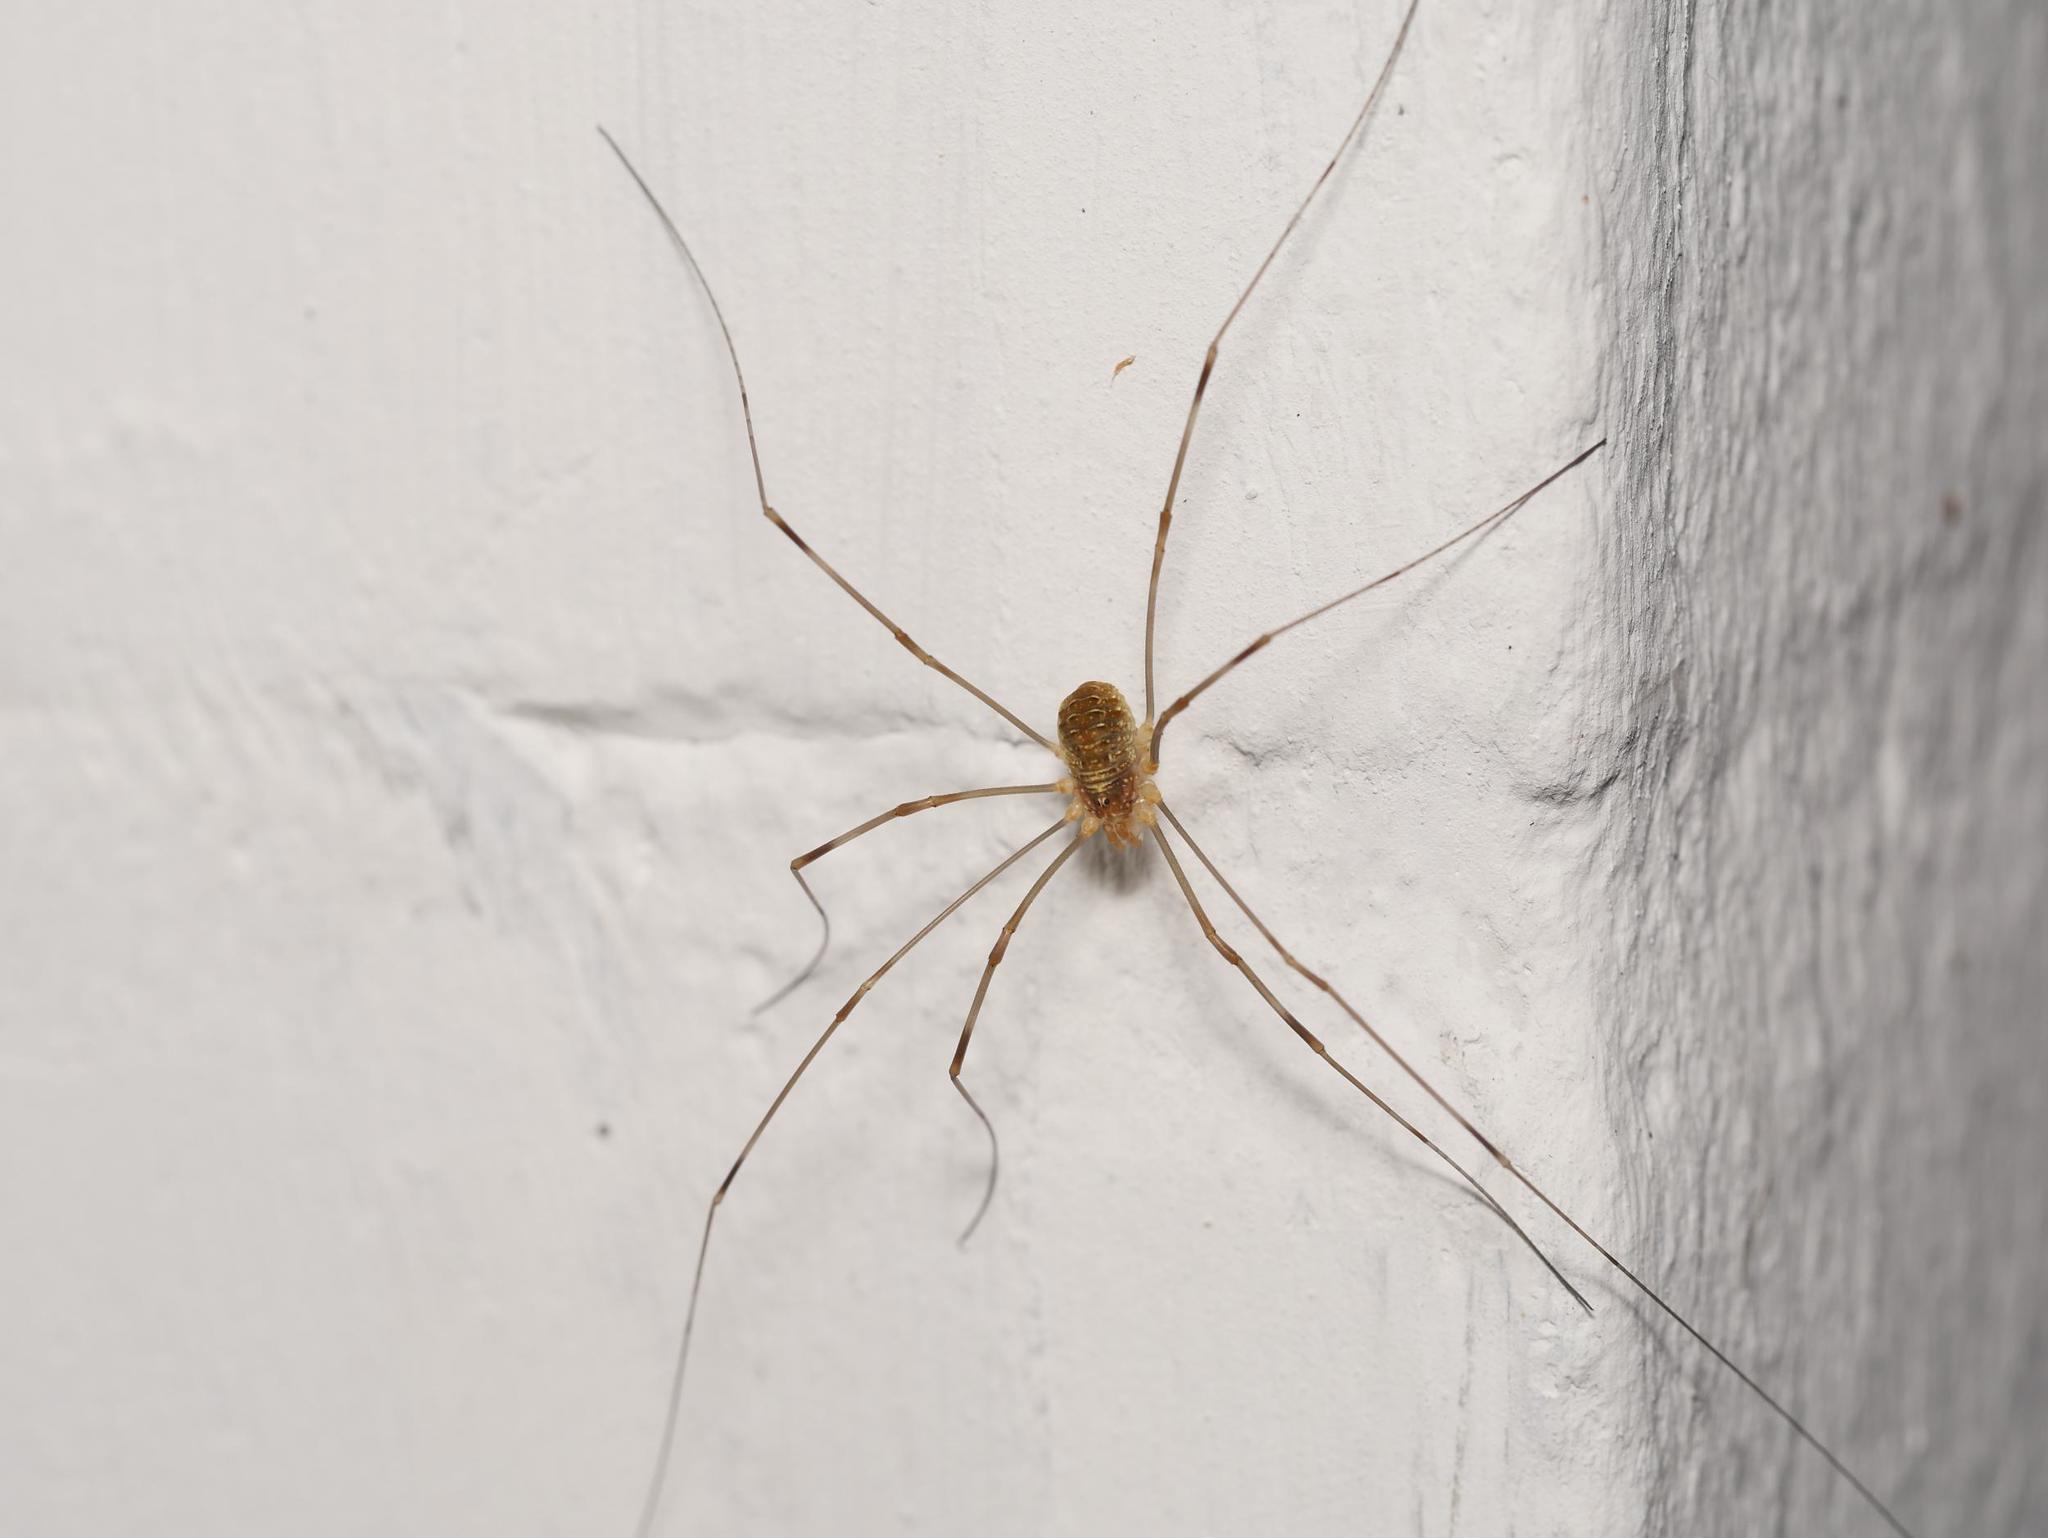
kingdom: Animalia
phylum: Arthropoda
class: Arachnida
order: Opiliones
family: Phalangiidae
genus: Opilio
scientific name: Opilio canestrinii
